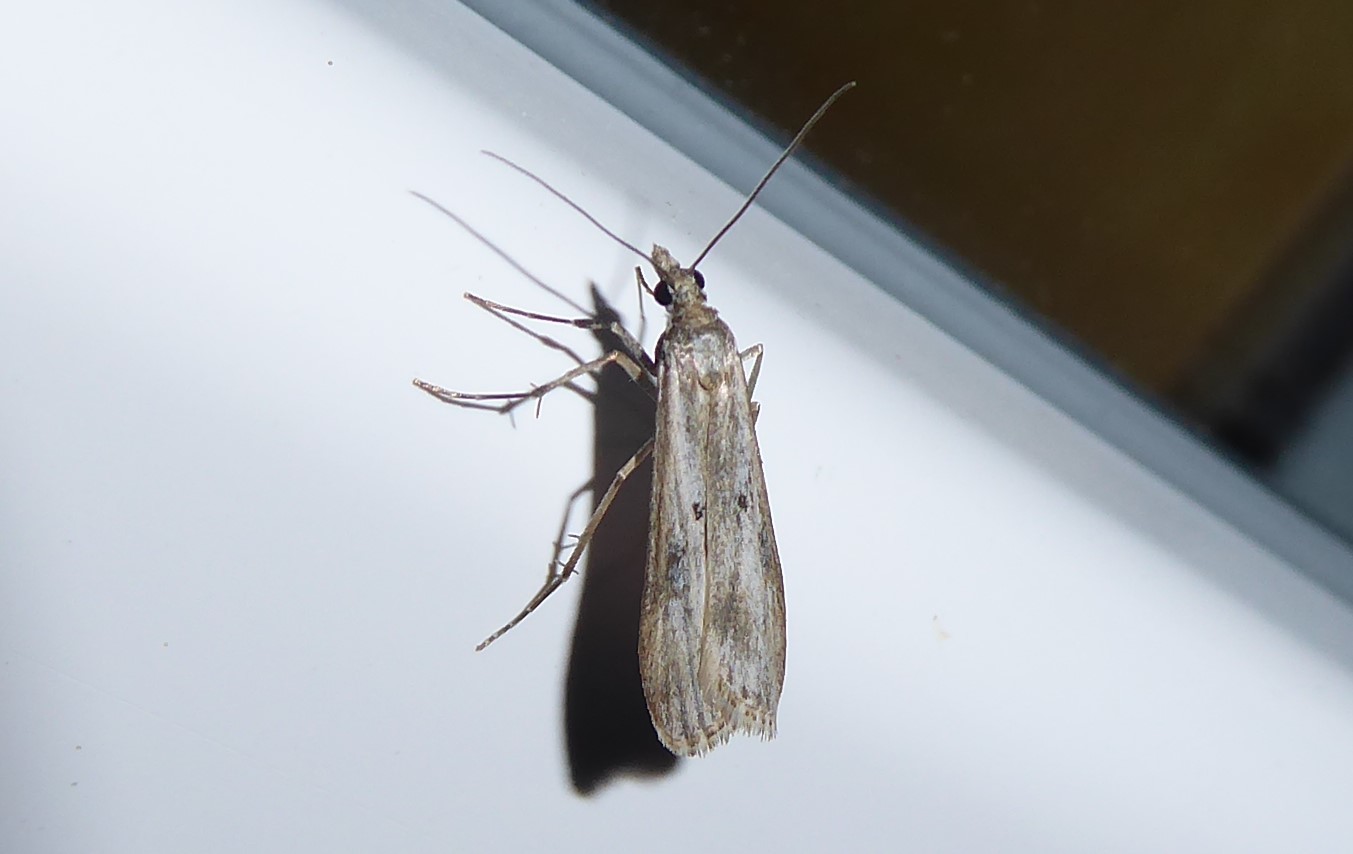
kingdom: Animalia
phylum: Arthropoda
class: Insecta
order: Lepidoptera
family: Crambidae
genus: Eudonia
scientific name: Eudonia leptalea
